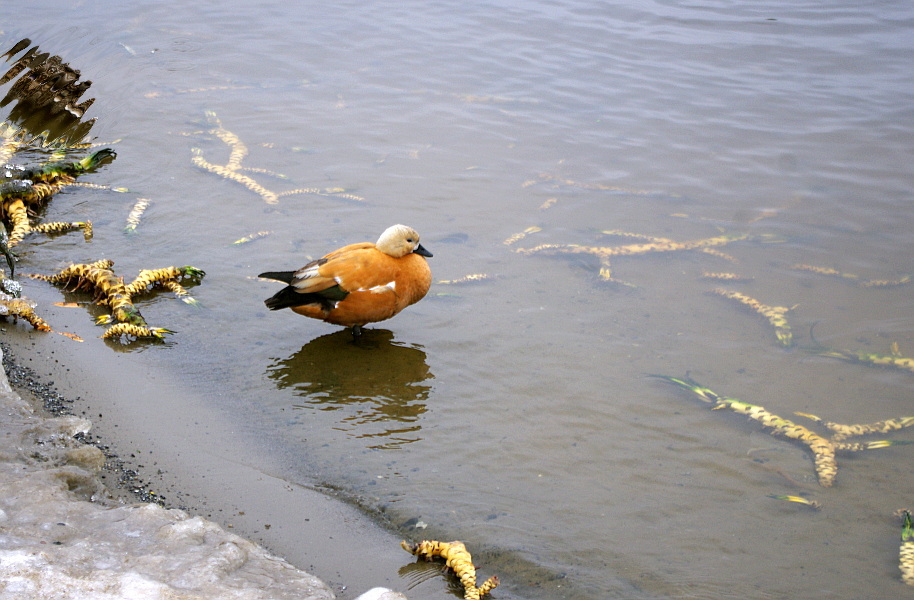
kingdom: Plantae
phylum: Tracheophyta
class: Magnoliopsida
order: Nymphaeales
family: Nymphaeaceae
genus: Nuphar
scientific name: Nuphar lutea
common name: Yellow water-lily
